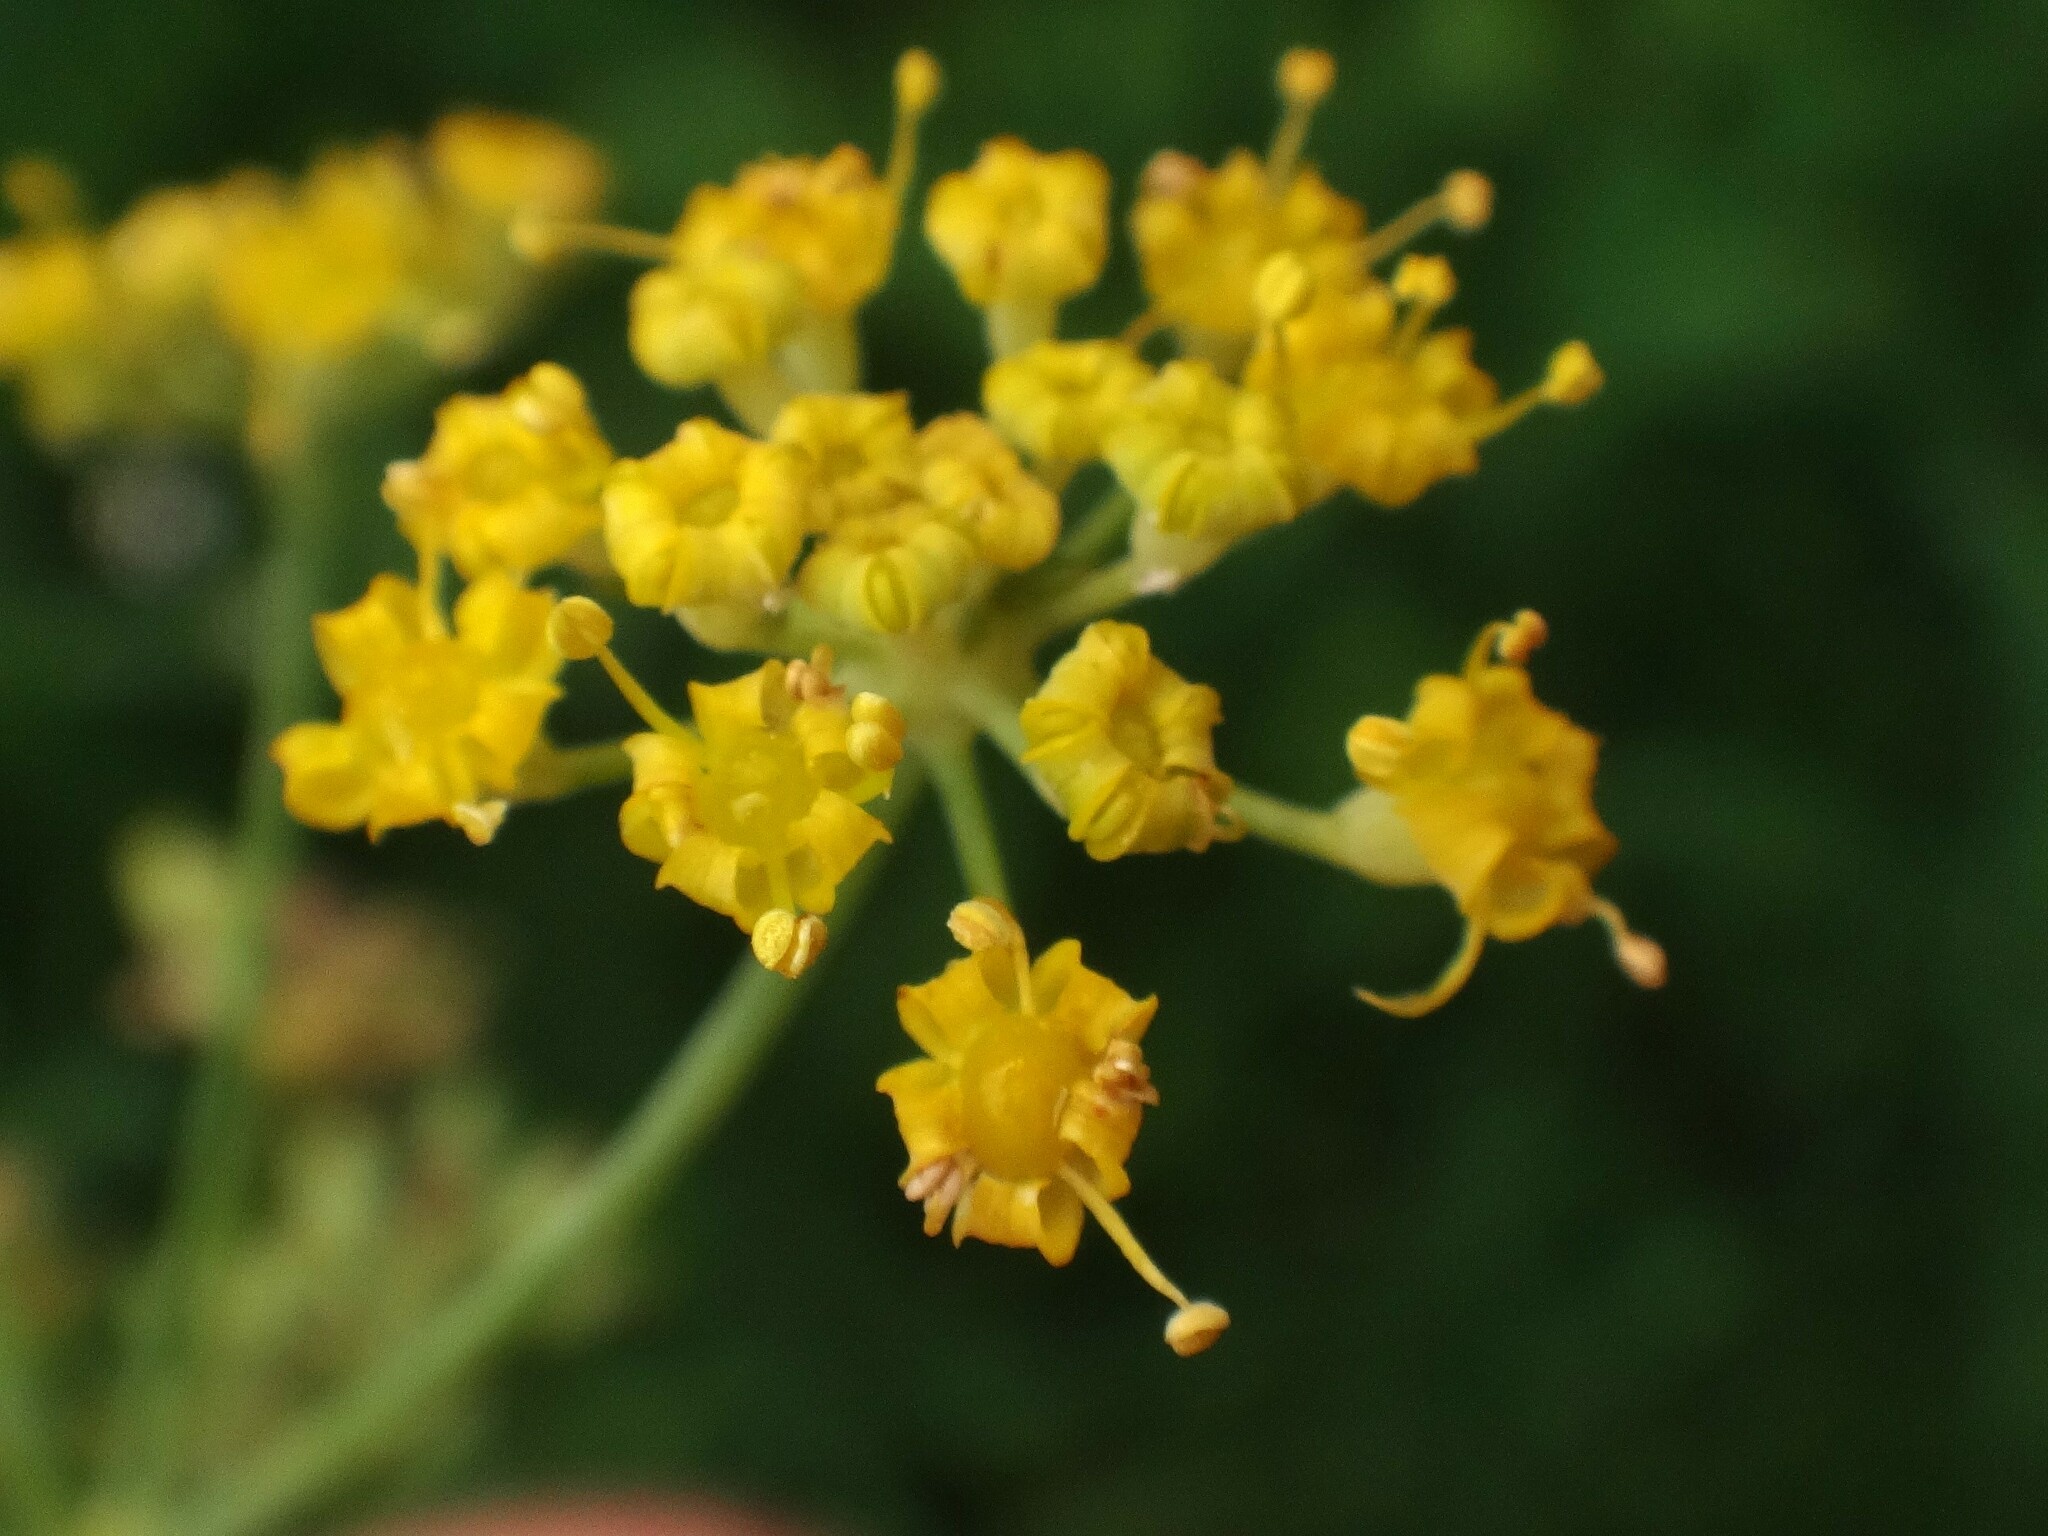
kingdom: Plantae
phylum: Tracheophyta
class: Magnoliopsida
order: Apiales
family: Apiaceae
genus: Foeniculum
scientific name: Foeniculum vulgare
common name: Fennel
